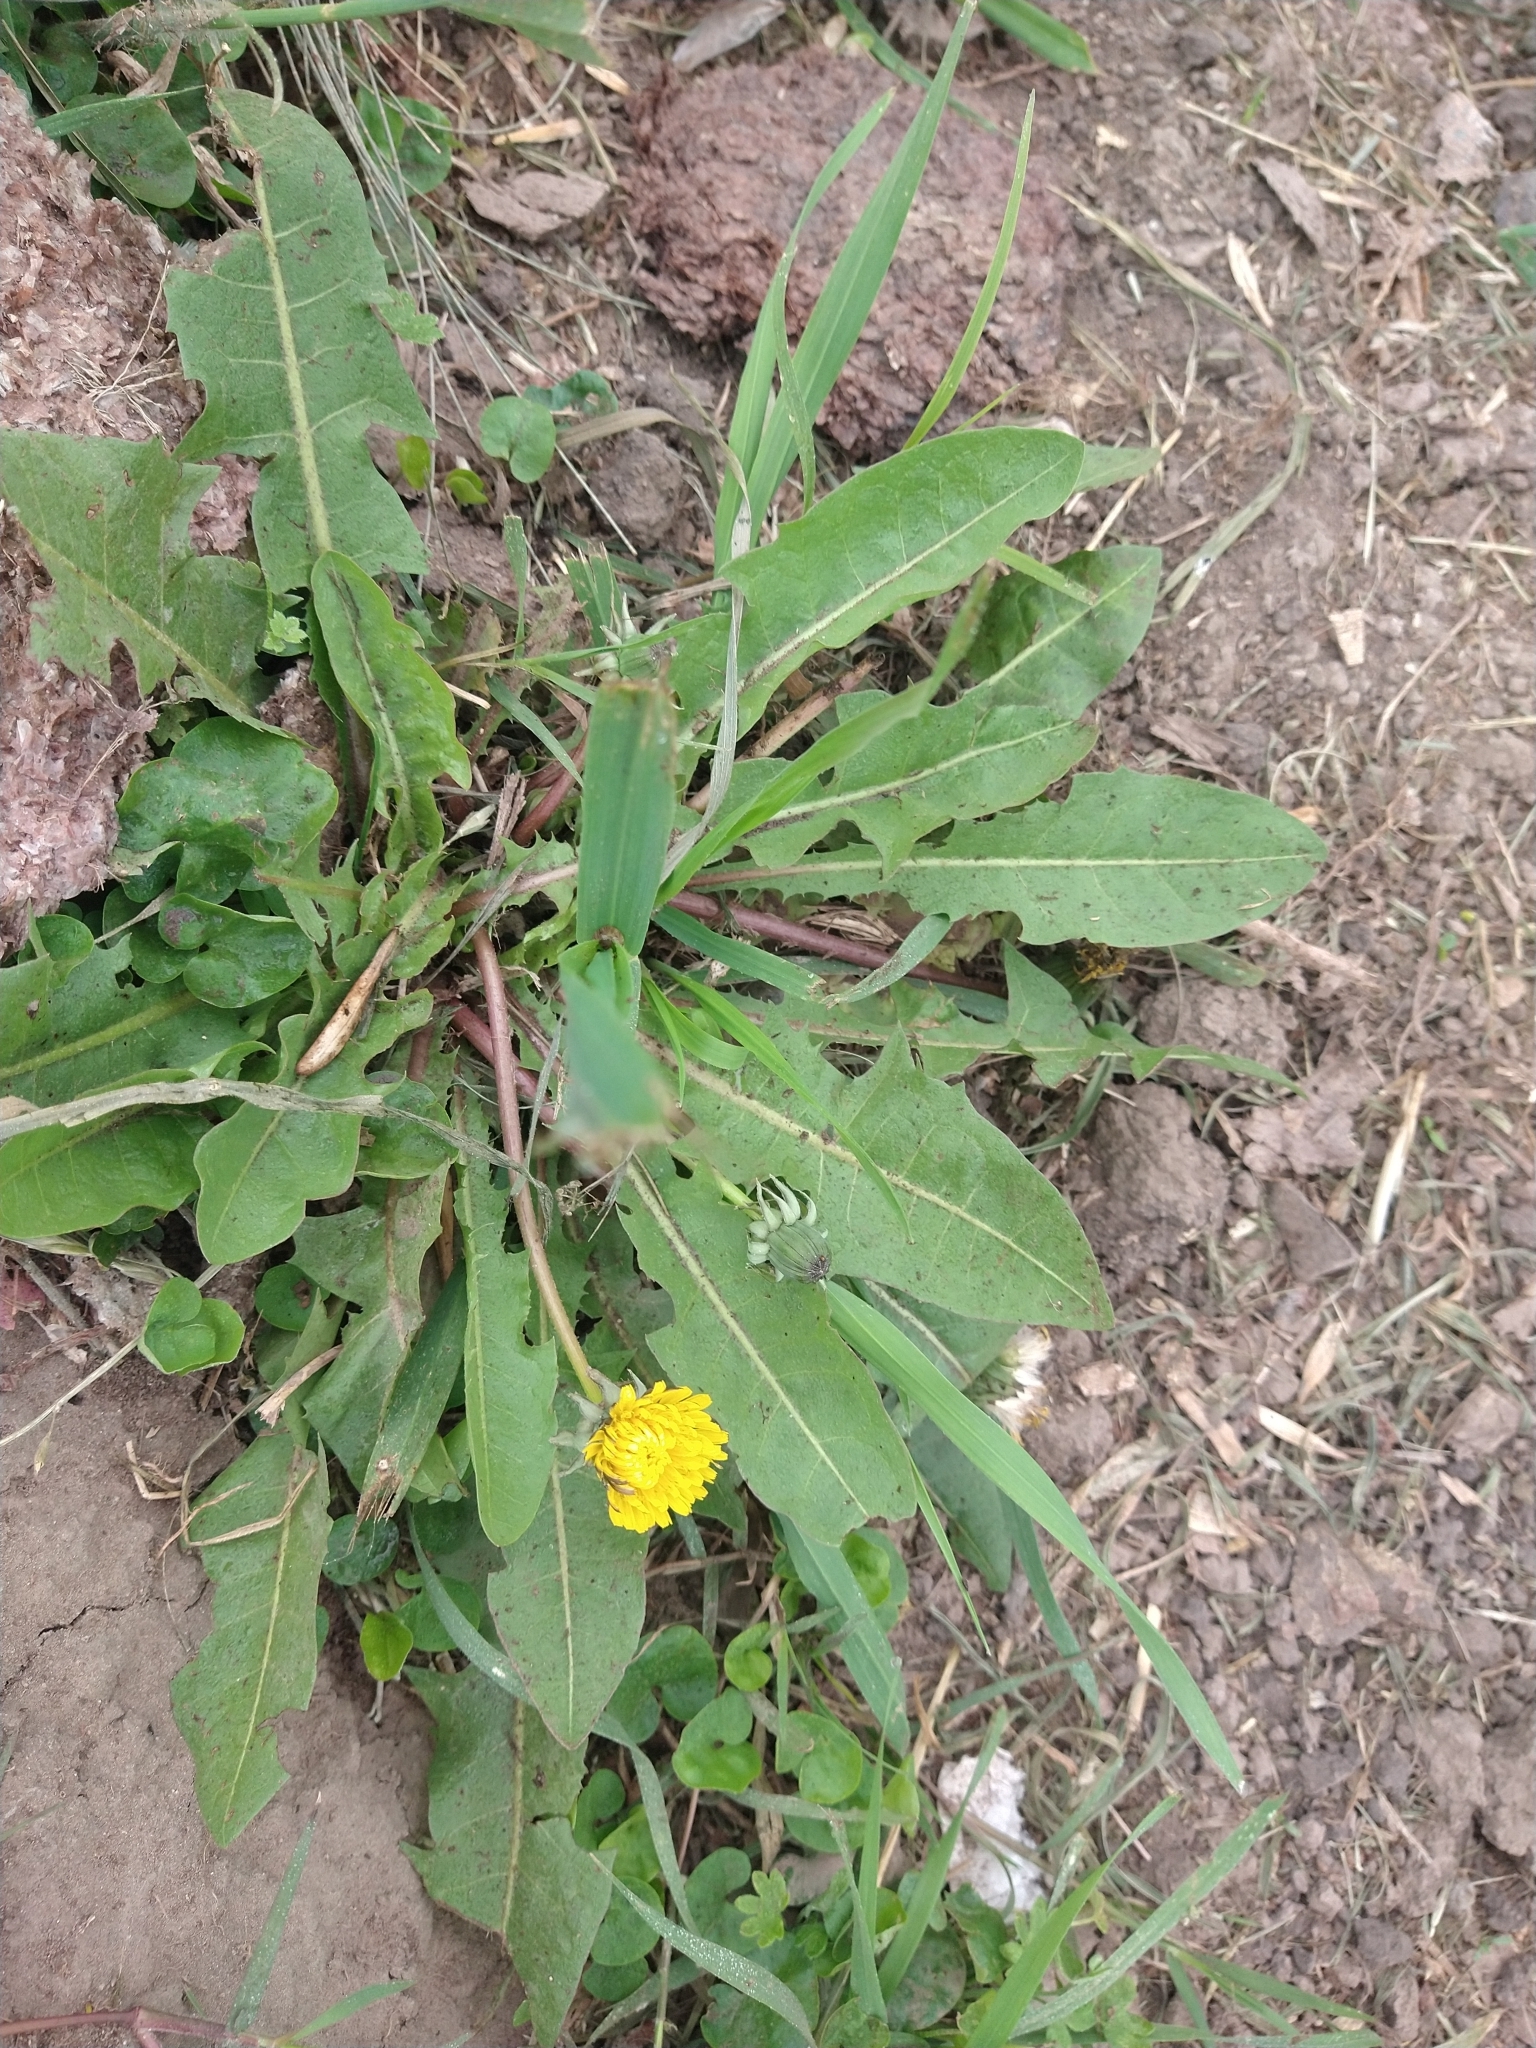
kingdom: Plantae
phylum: Tracheophyta
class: Magnoliopsida
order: Asterales
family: Asteraceae
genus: Taraxacum
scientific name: Taraxacum officinale
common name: Common dandelion
